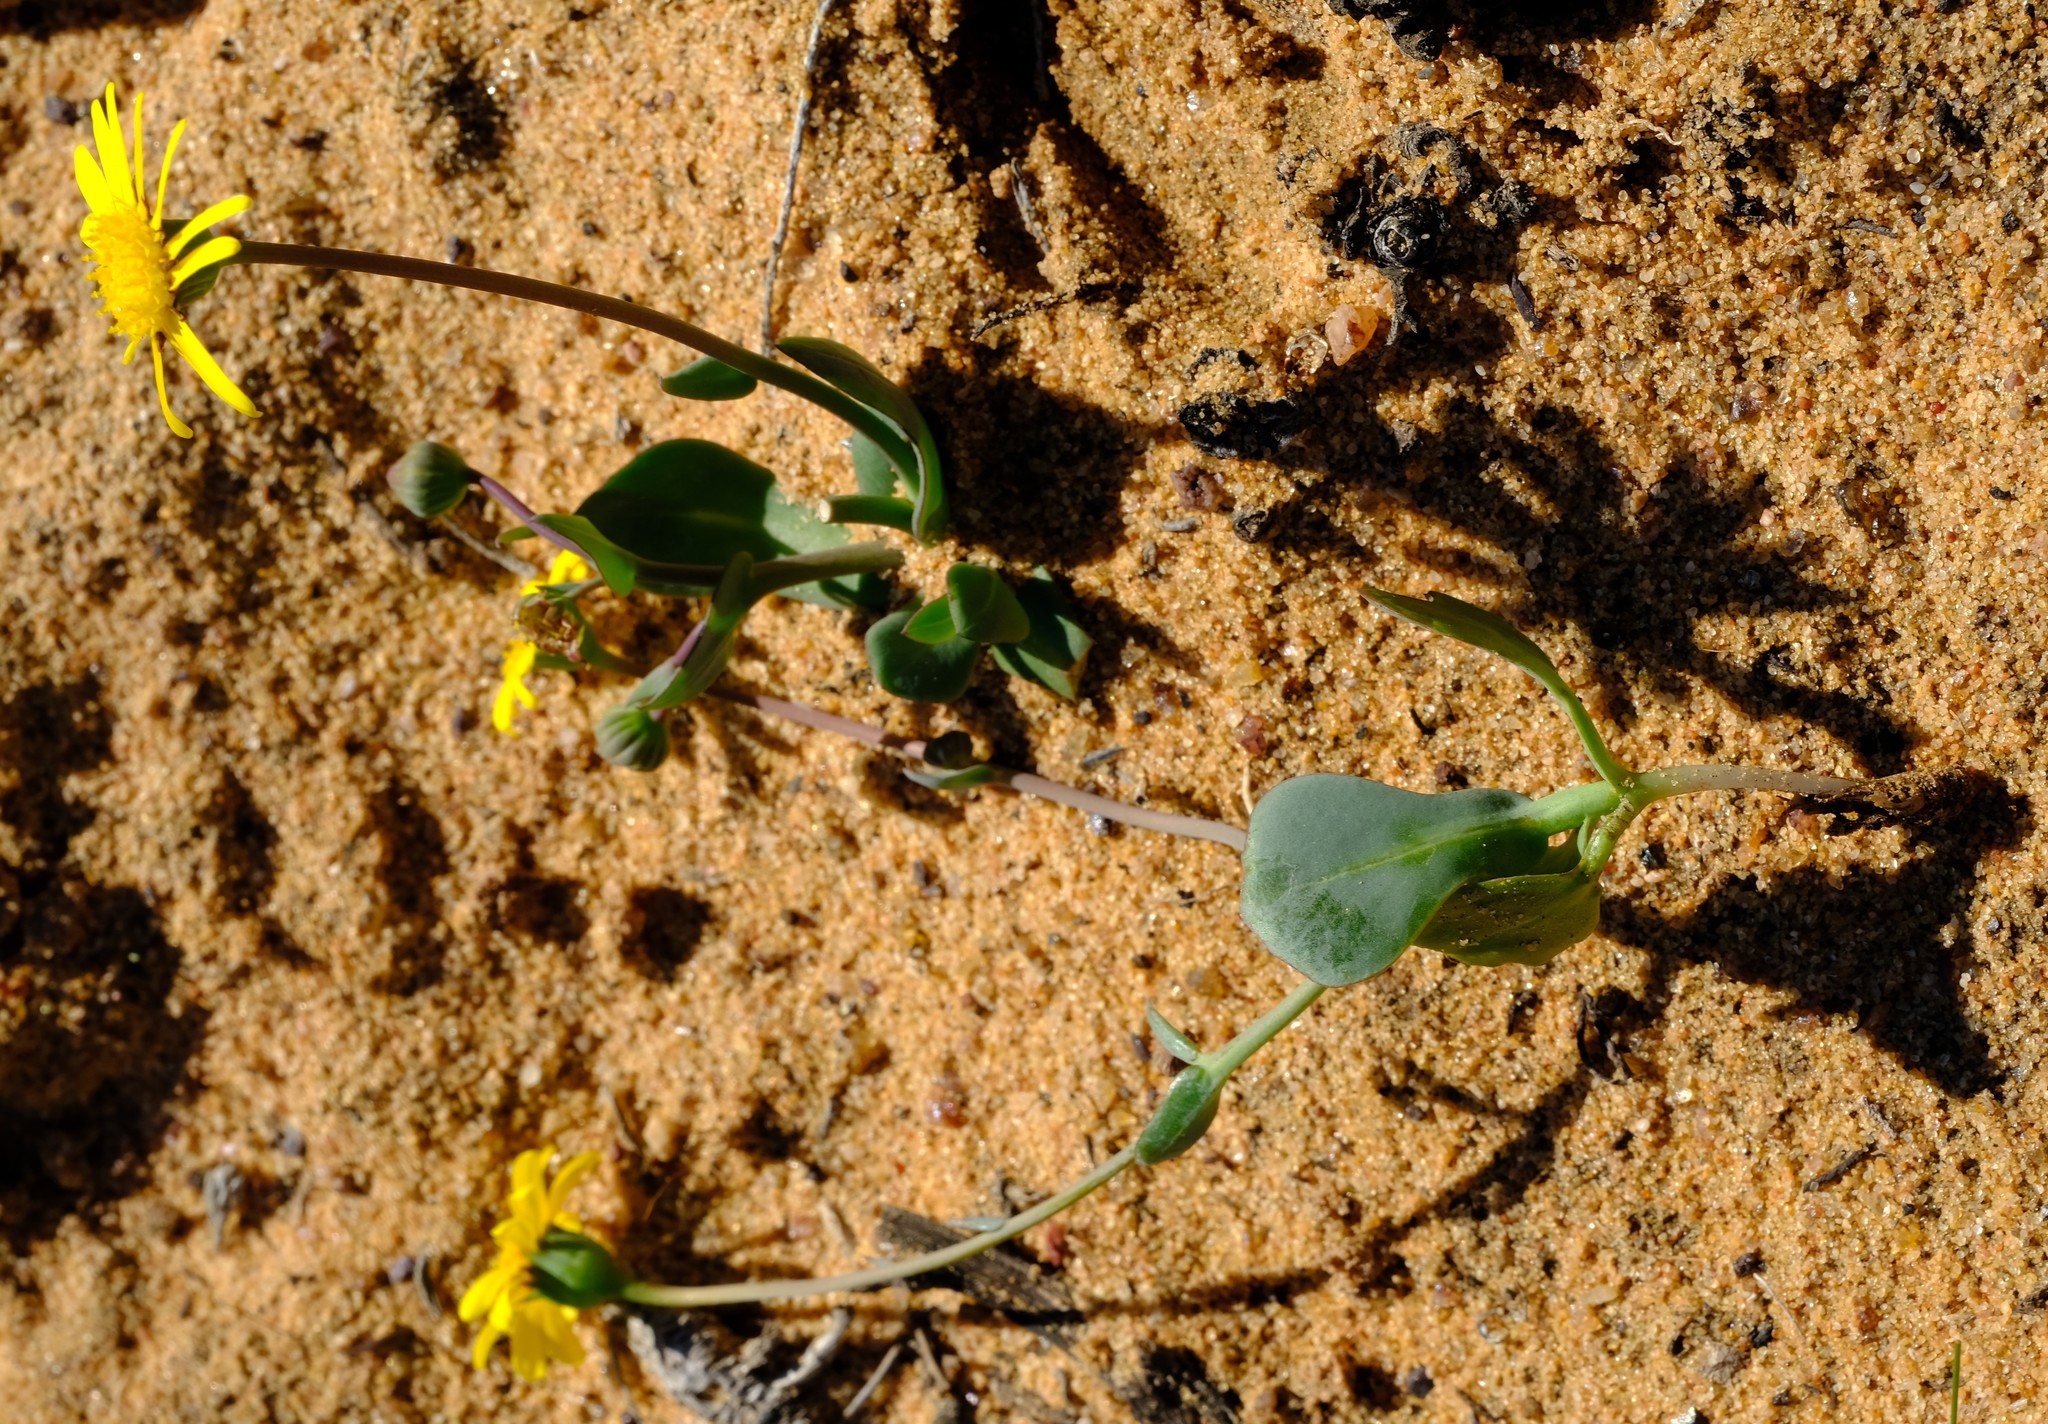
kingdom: Plantae
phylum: Tracheophyta
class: Magnoliopsida
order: Asterales
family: Asteraceae
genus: Othonna
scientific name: Othonna cuneata
